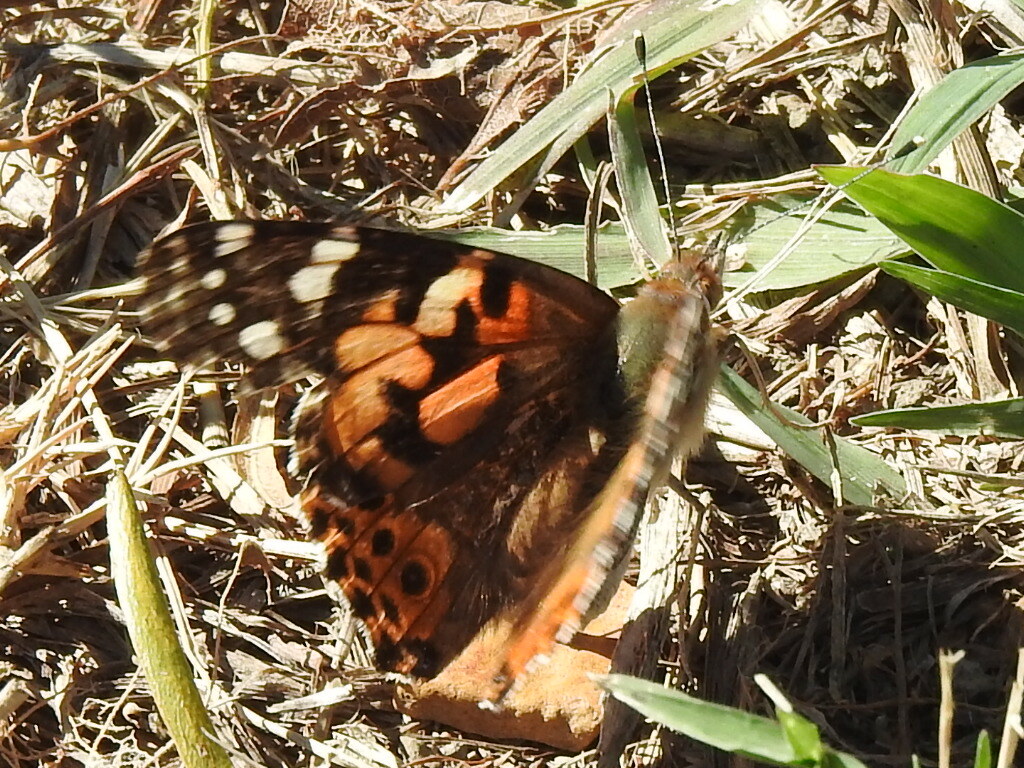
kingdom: Animalia
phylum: Arthropoda
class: Insecta
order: Lepidoptera
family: Nymphalidae
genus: Vanessa
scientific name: Vanessa cardui
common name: Painted lady
